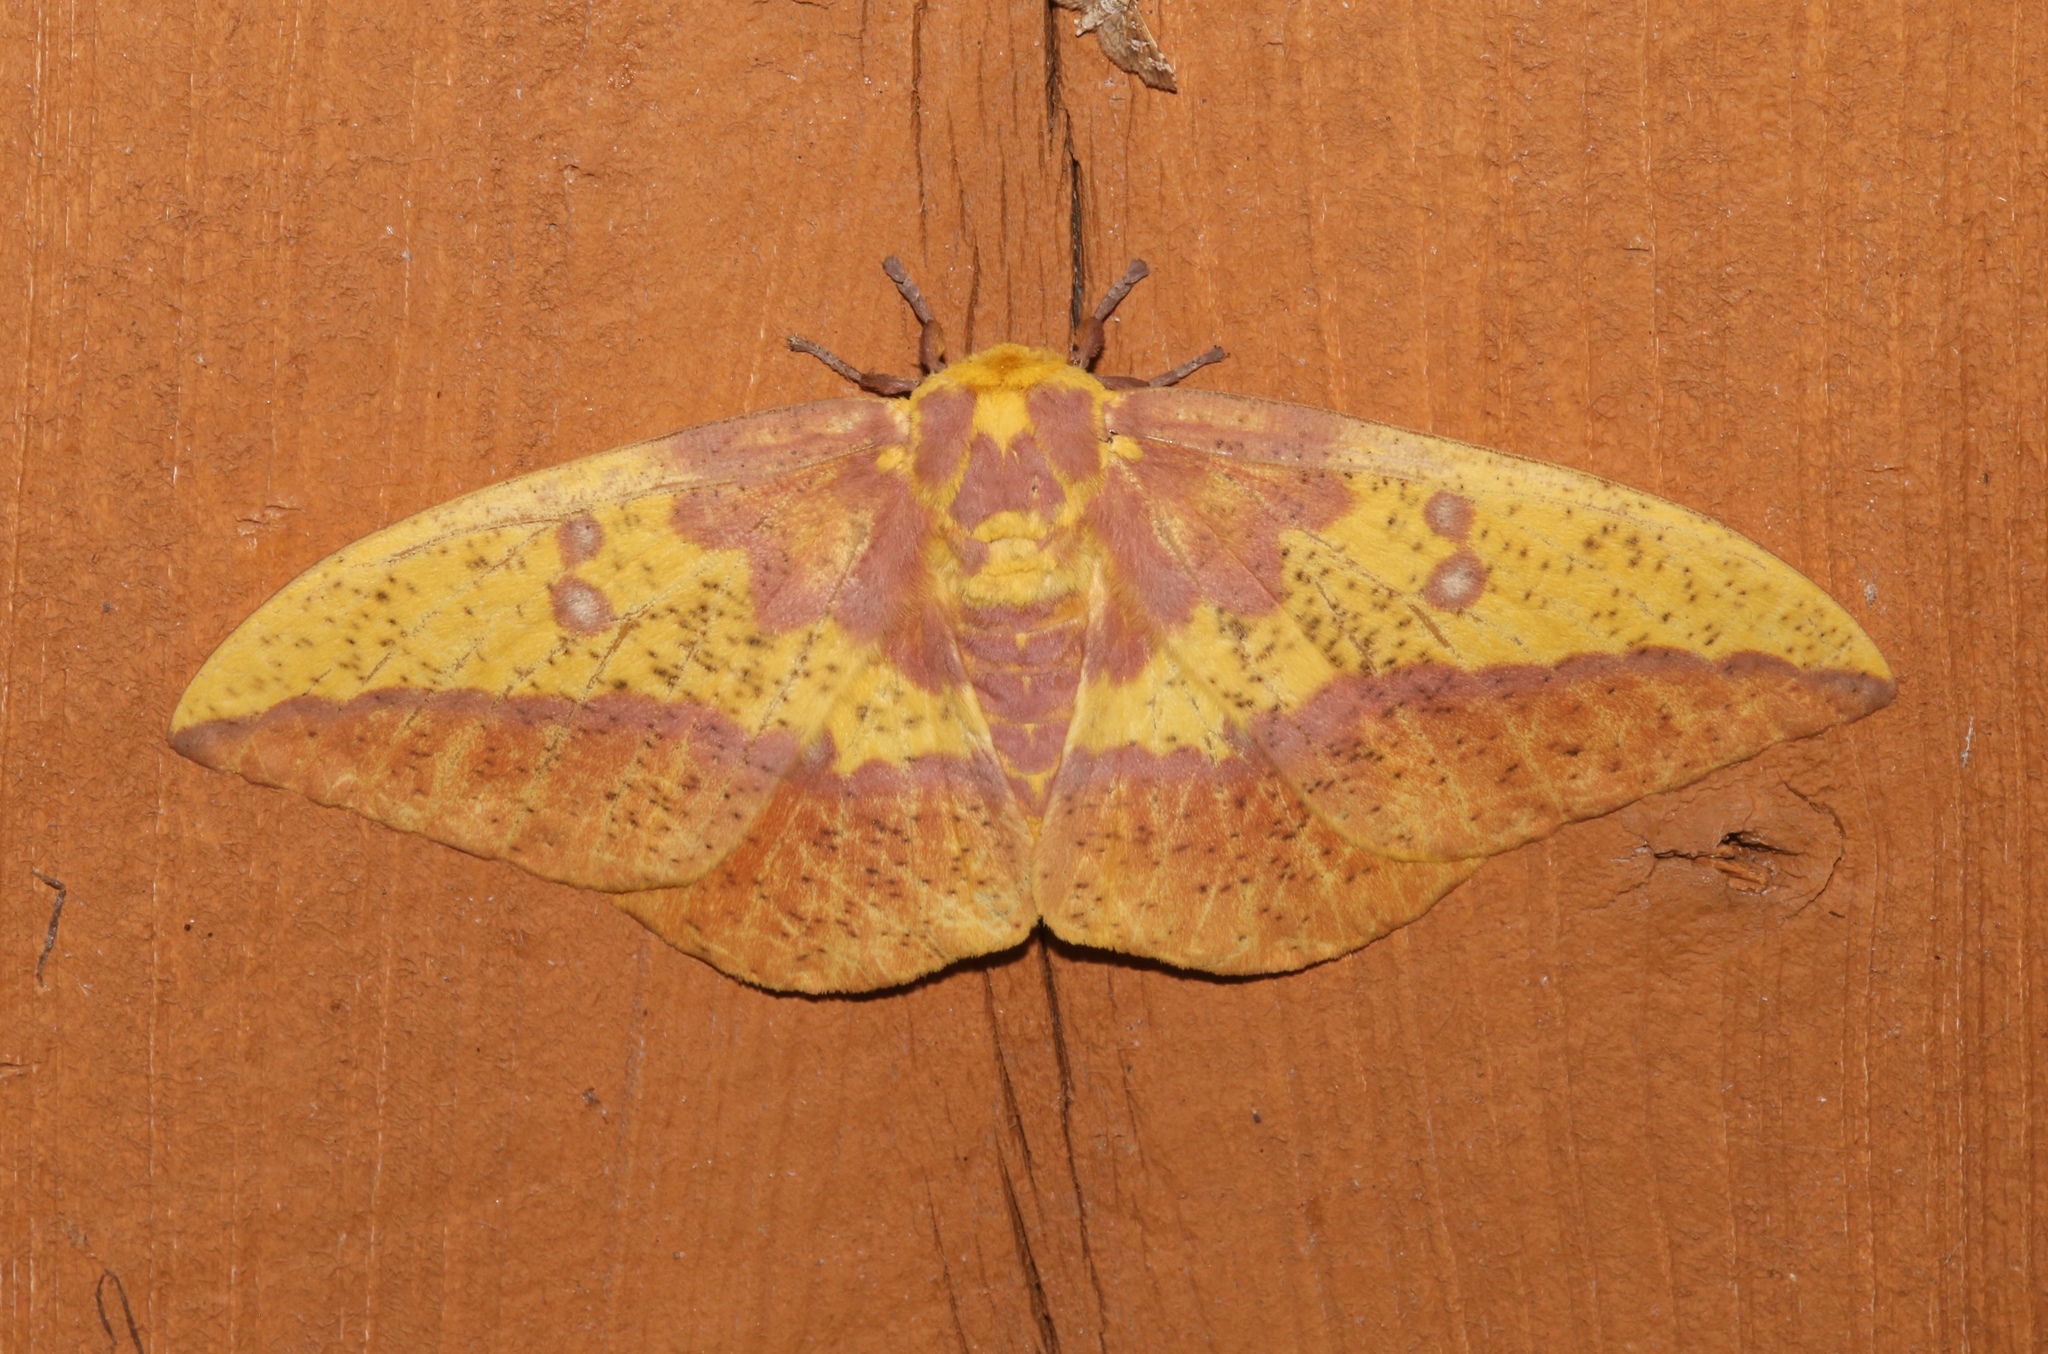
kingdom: Animalia
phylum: Arthropoda
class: Insecta
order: Lepidoptera
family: Saturniidae
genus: Eacles
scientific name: Eacles imperialis
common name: Imperial moth
